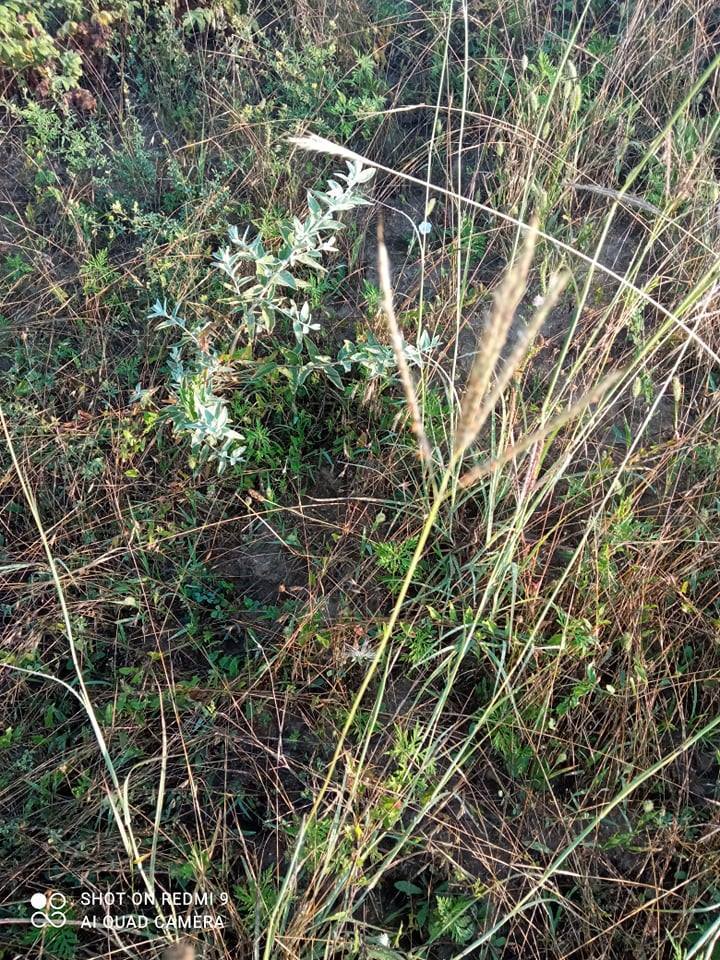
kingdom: Plantae
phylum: Tracheophyta
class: Liliopsida
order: Poales
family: Poaceae
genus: Bothriochloa
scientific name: Bothriochloa ischaemum
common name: Yellow bluestem
